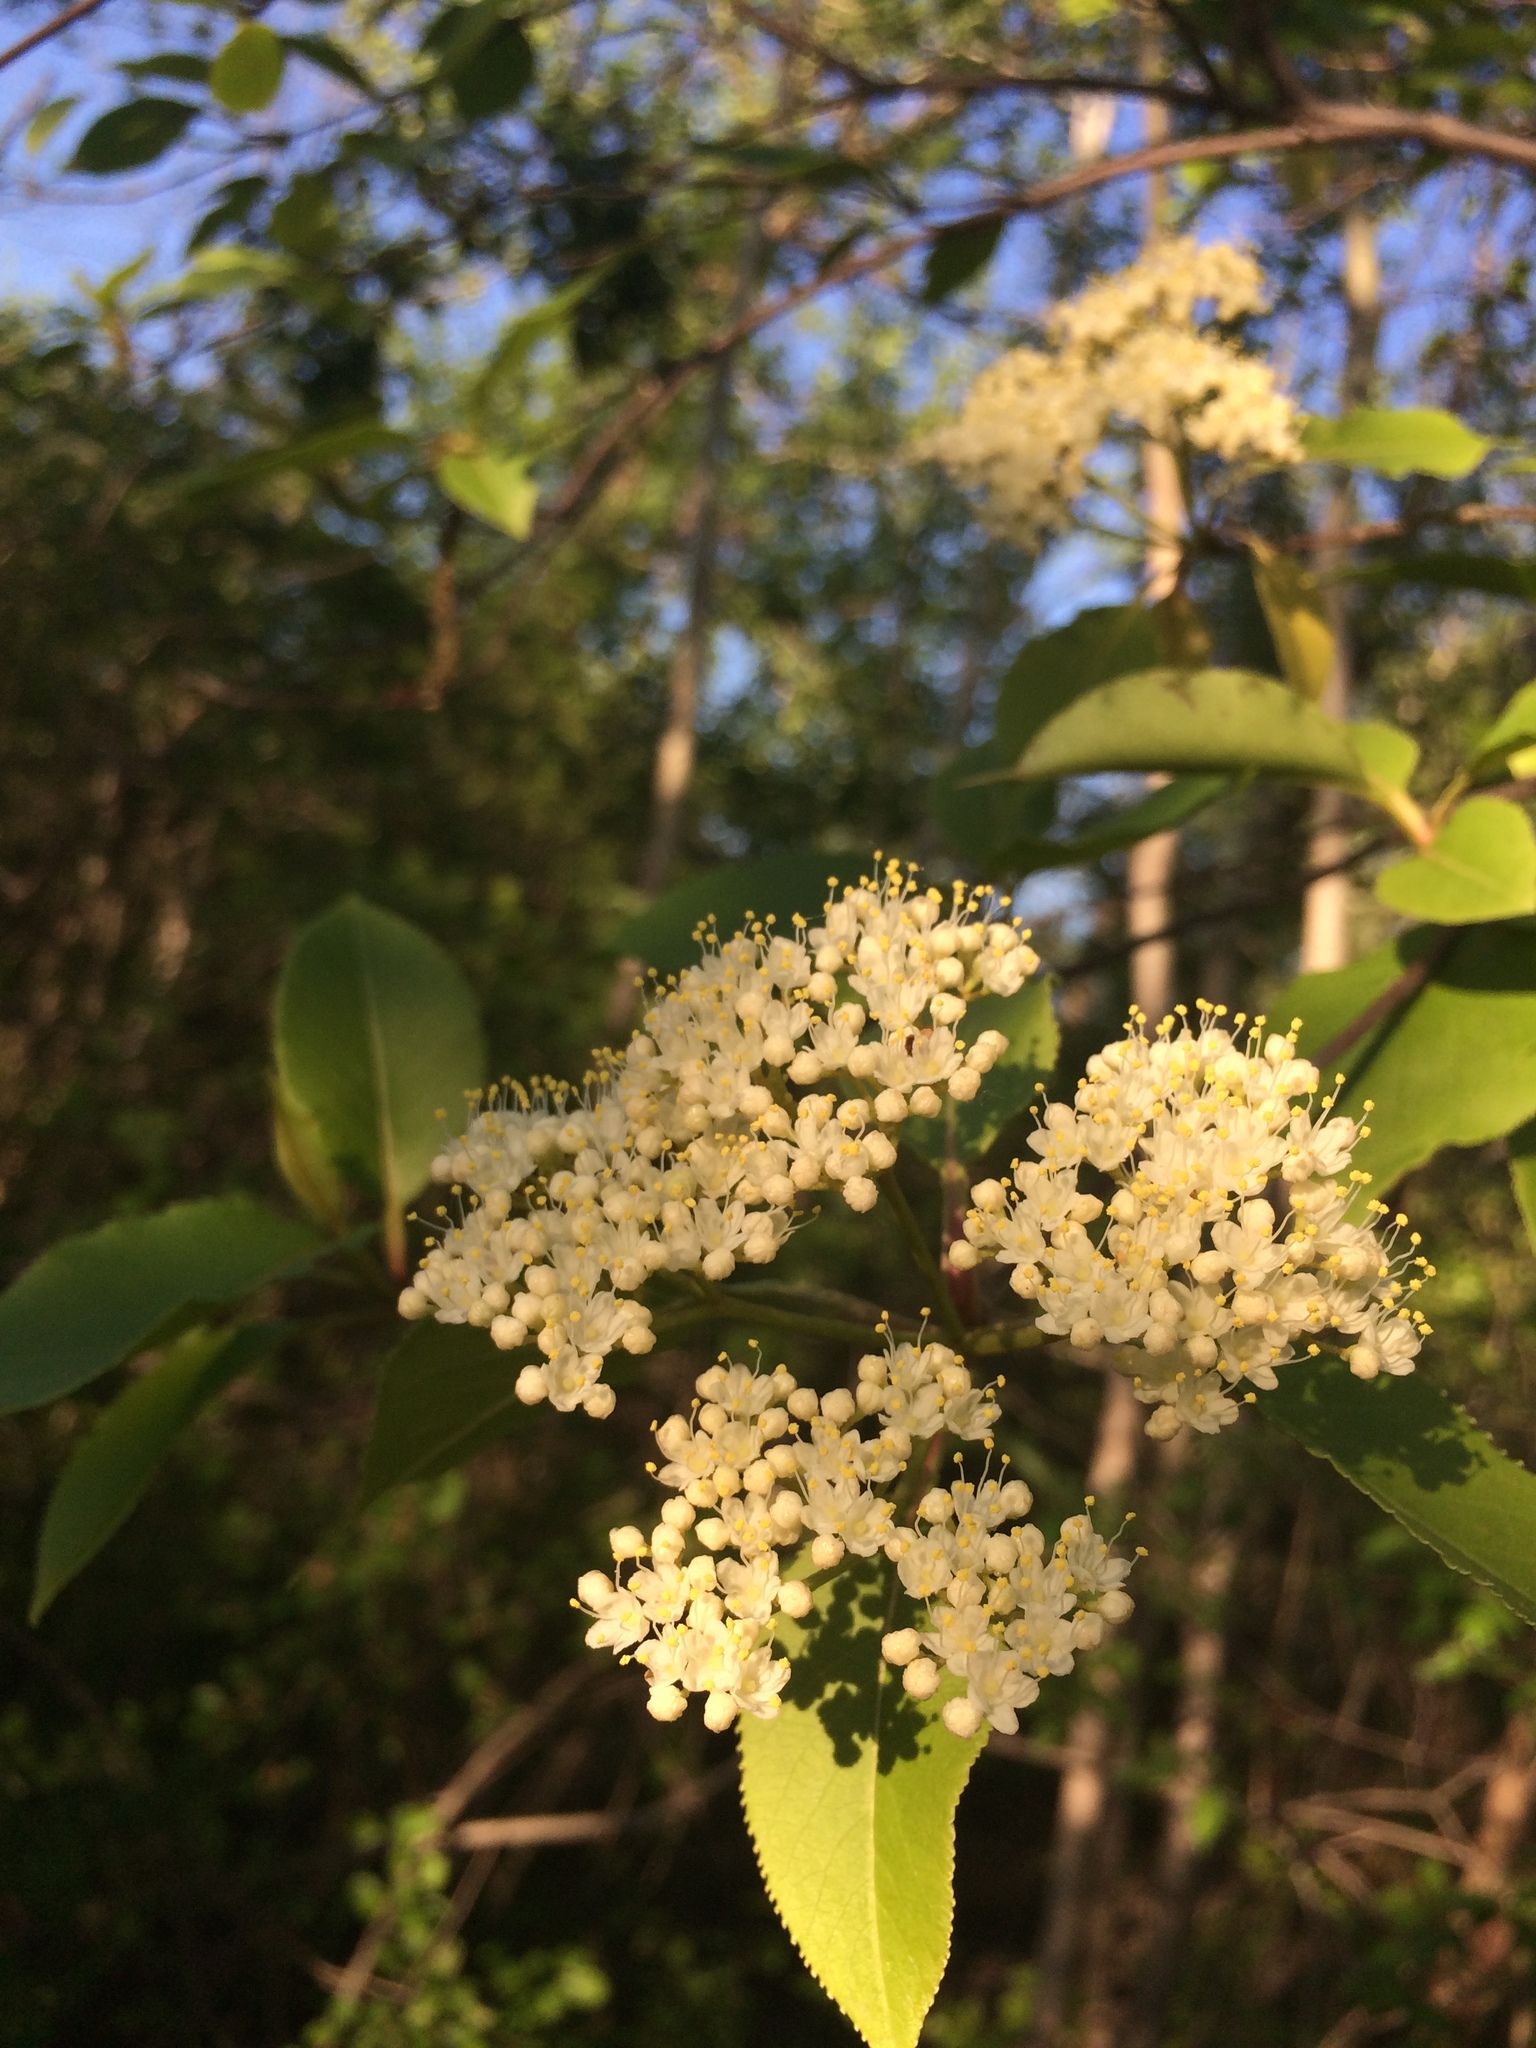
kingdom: Plantae
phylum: Tracheophyta
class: Magnoliopsida
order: Dipsacales
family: Viburnaceae
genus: Viburnum
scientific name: Viburnum lentago
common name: Black haw
